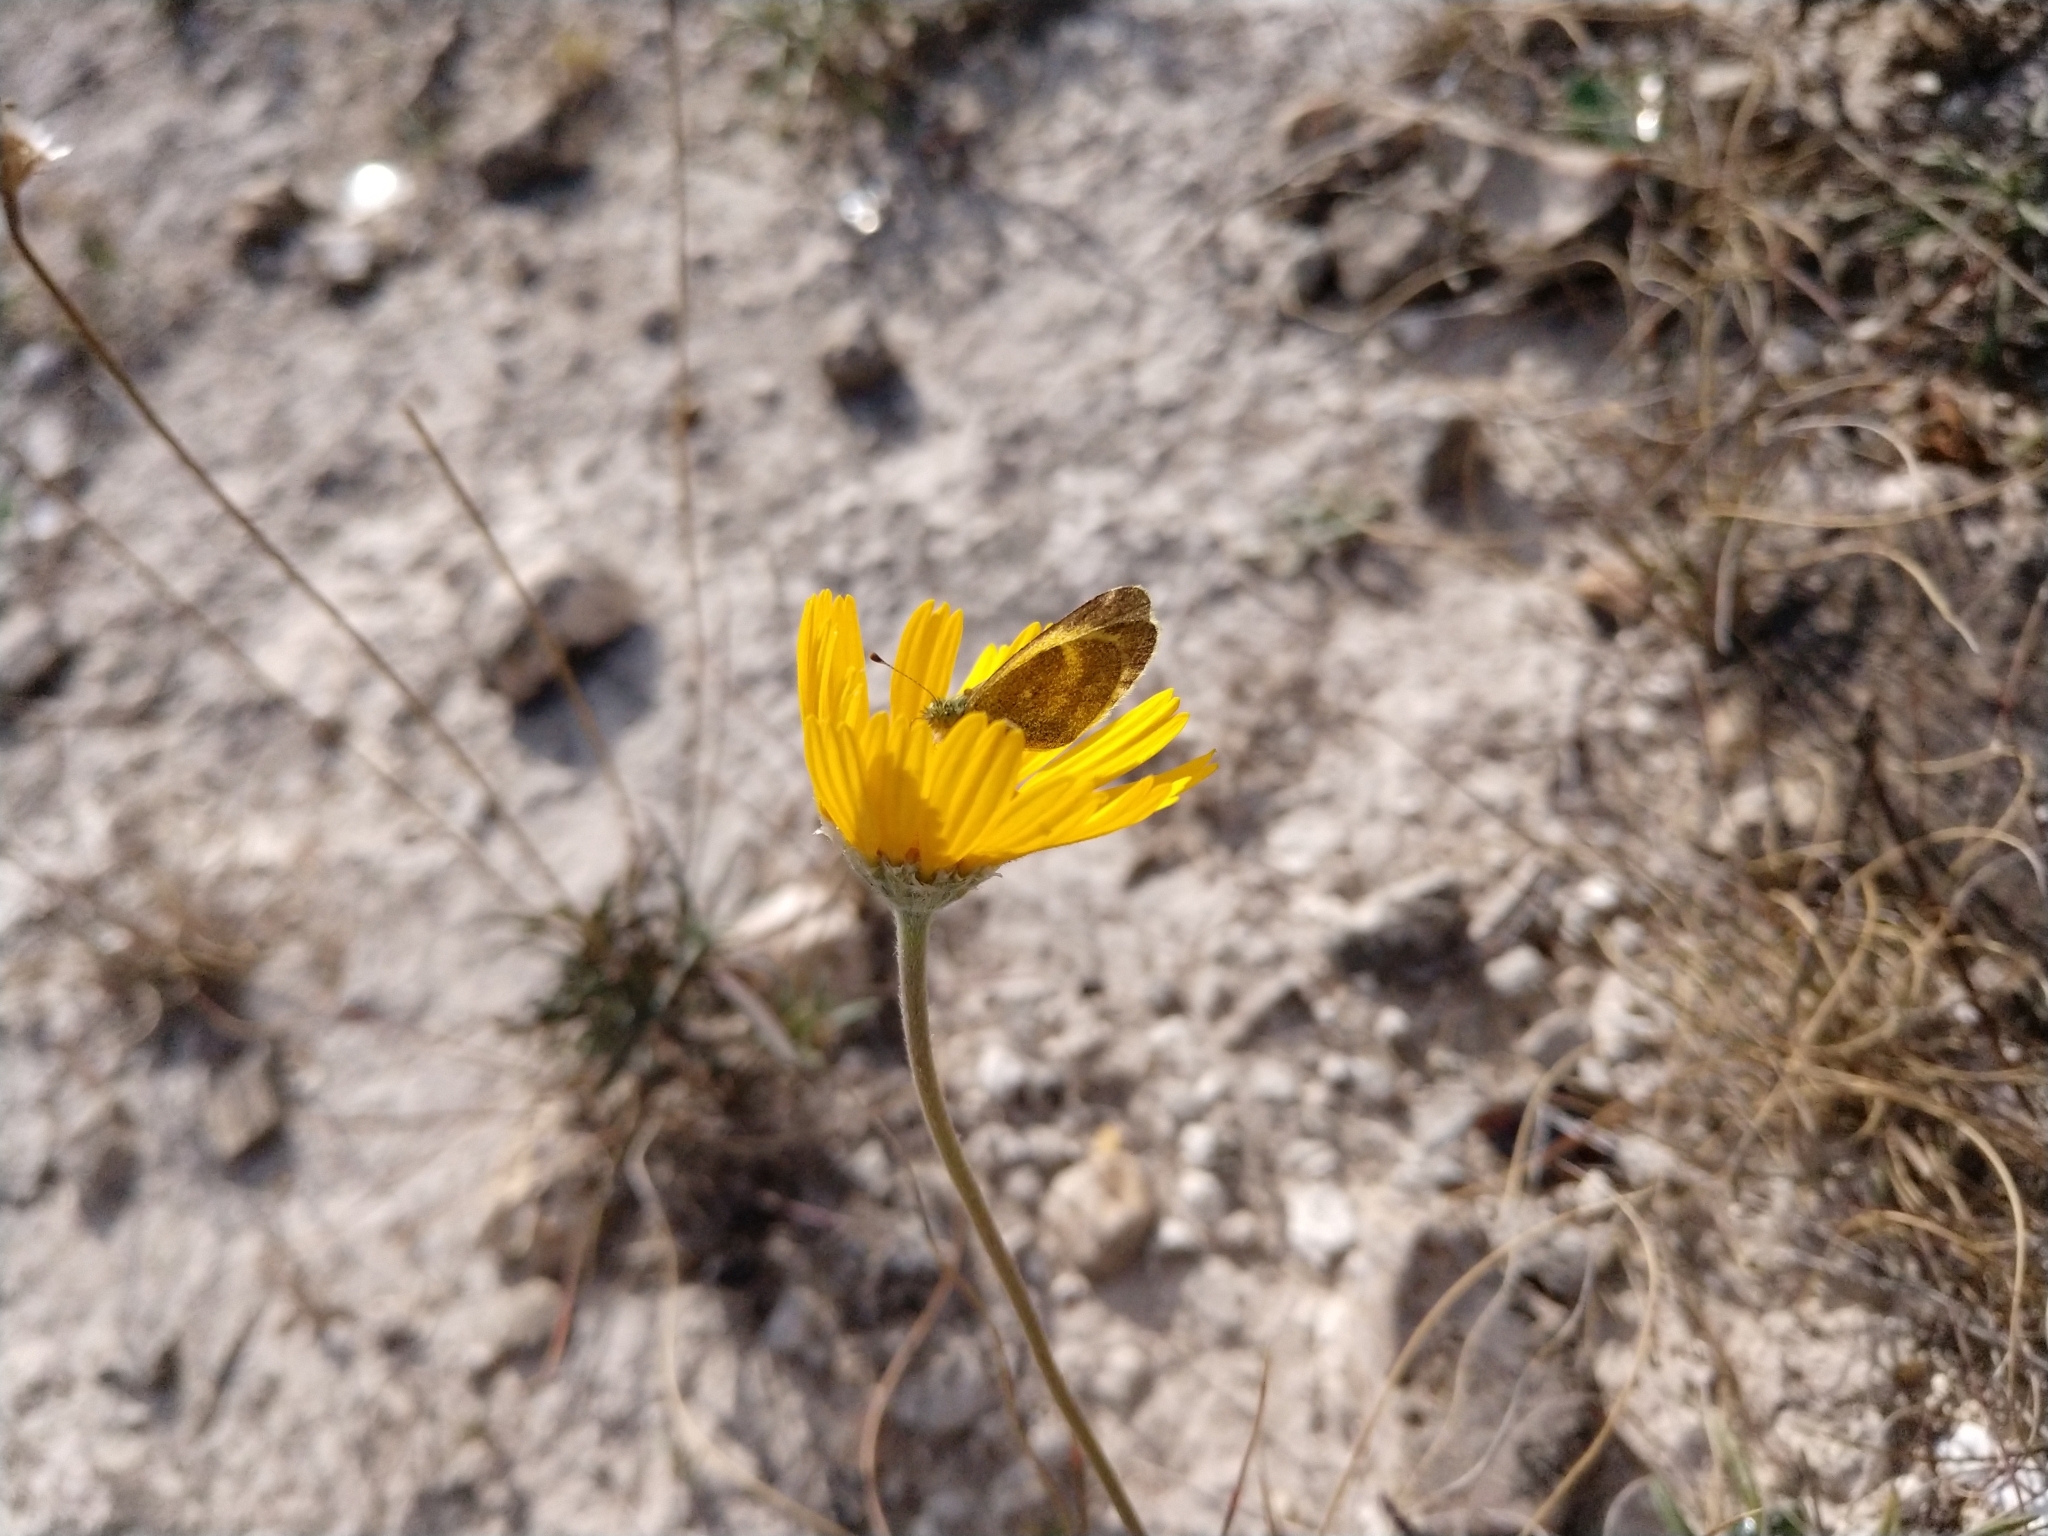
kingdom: Animalia
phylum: Arthropoda
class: Insecta
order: Lepidoptera
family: Pieridae
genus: Nathalis
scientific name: Nathalis iole
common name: Dainty sulphur
